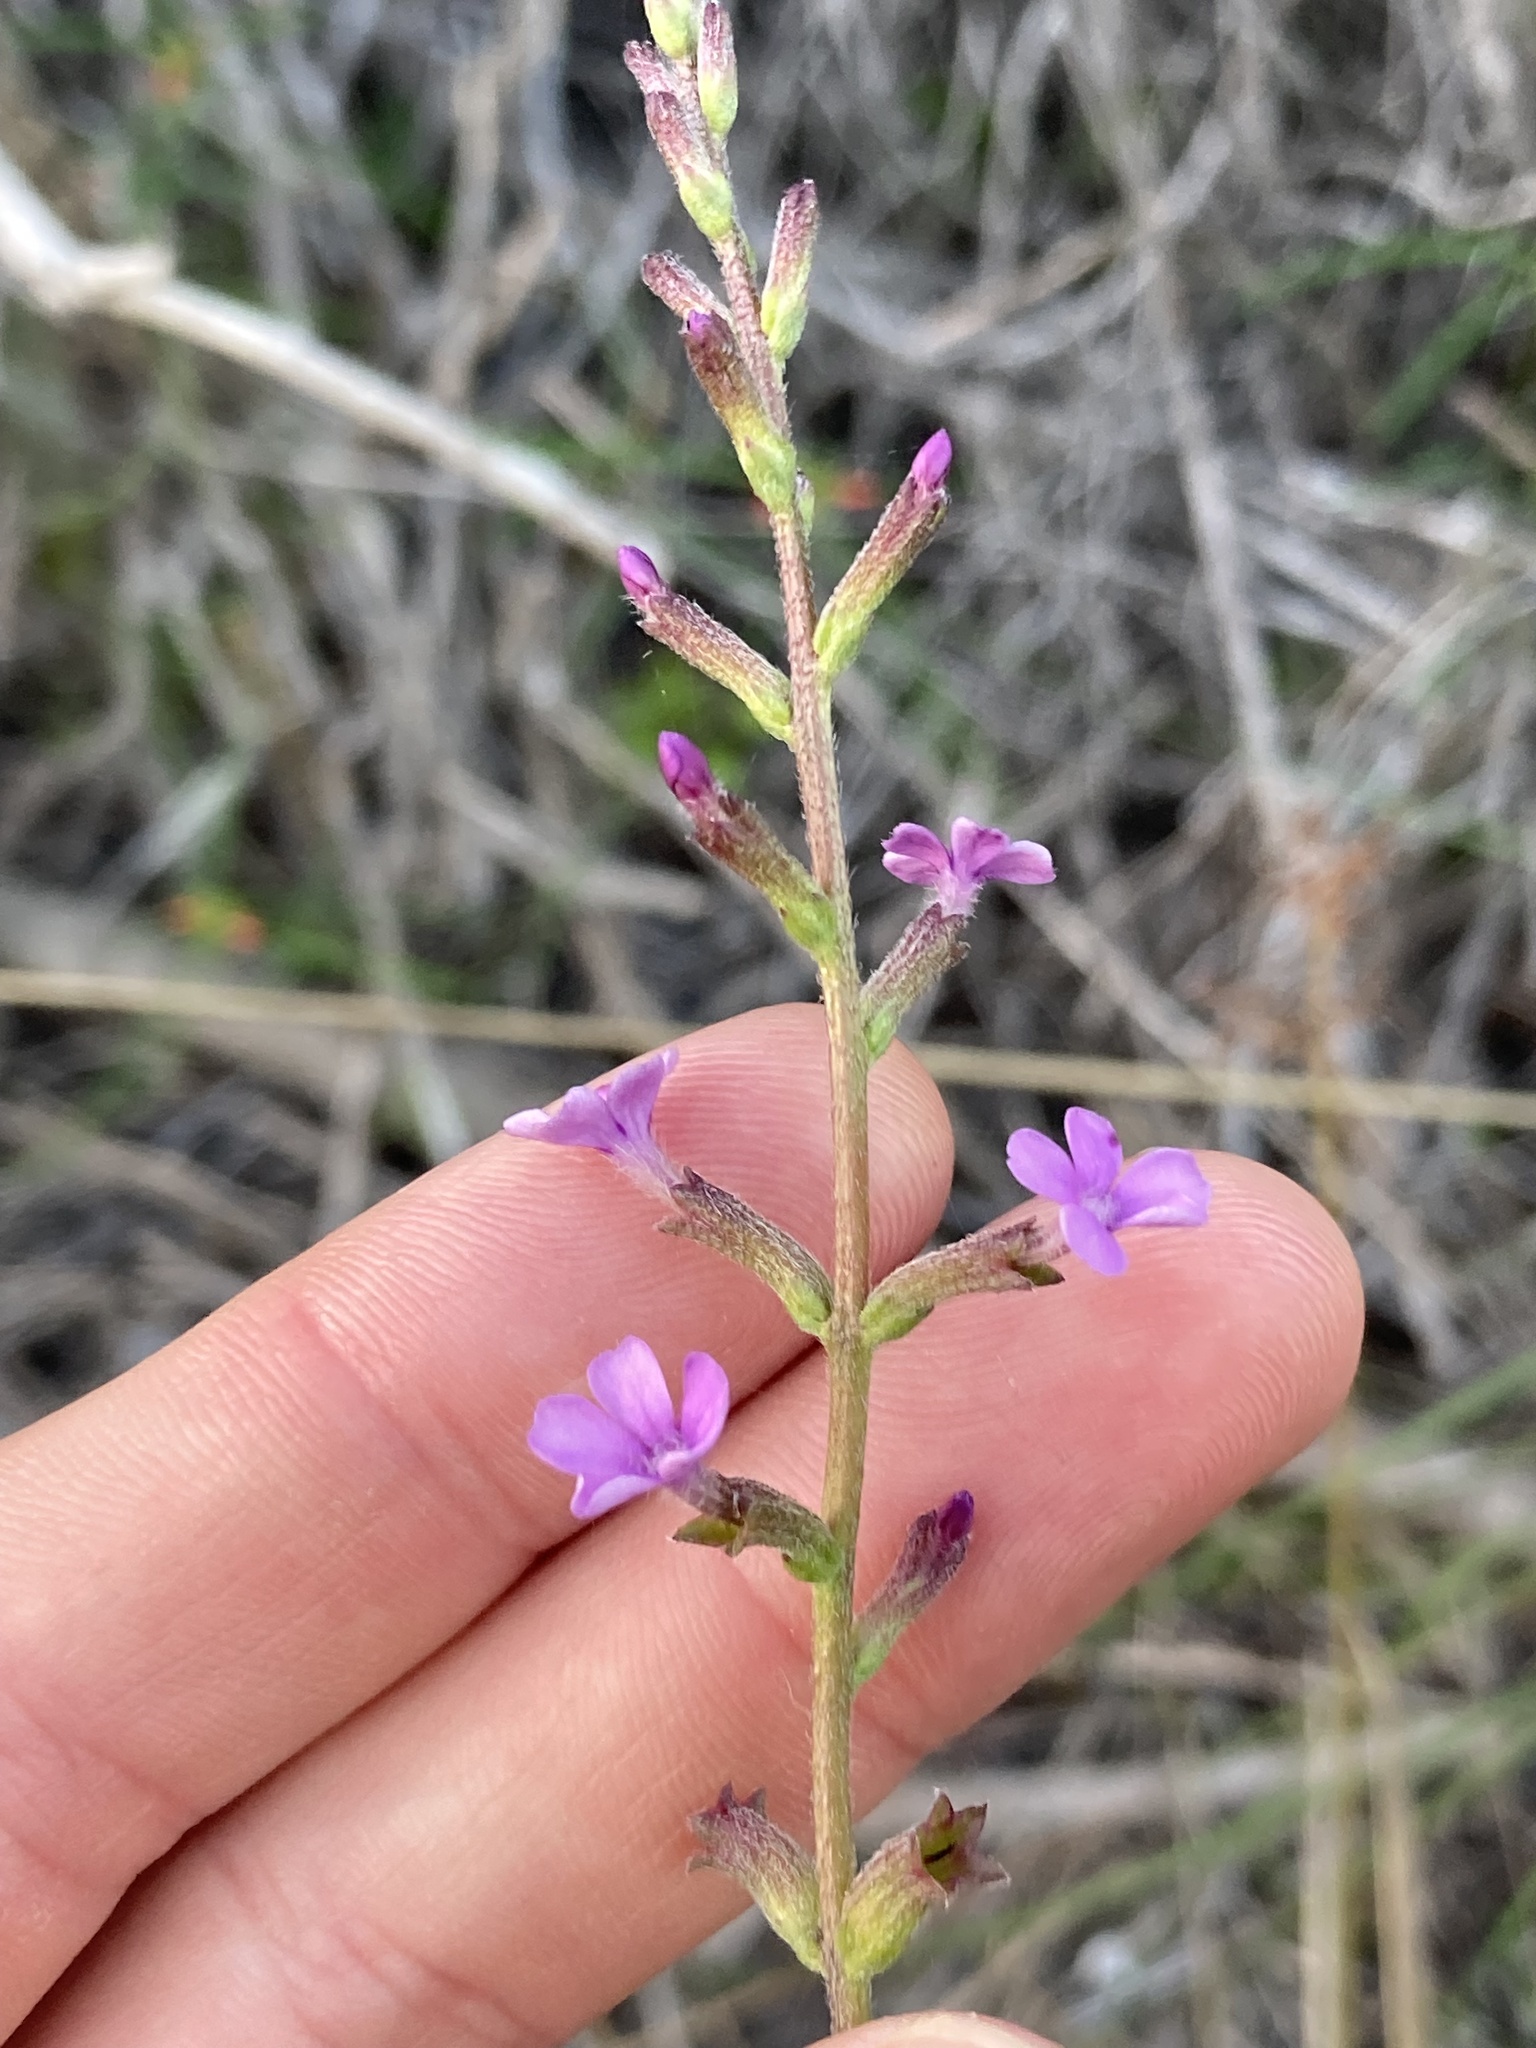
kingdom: Plantae
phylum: Tracheophyta
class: Magnoliopsida
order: Lamiales
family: Orobanchaceae
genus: Buchnera
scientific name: Buchnera floridana
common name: Florida bluehearts
